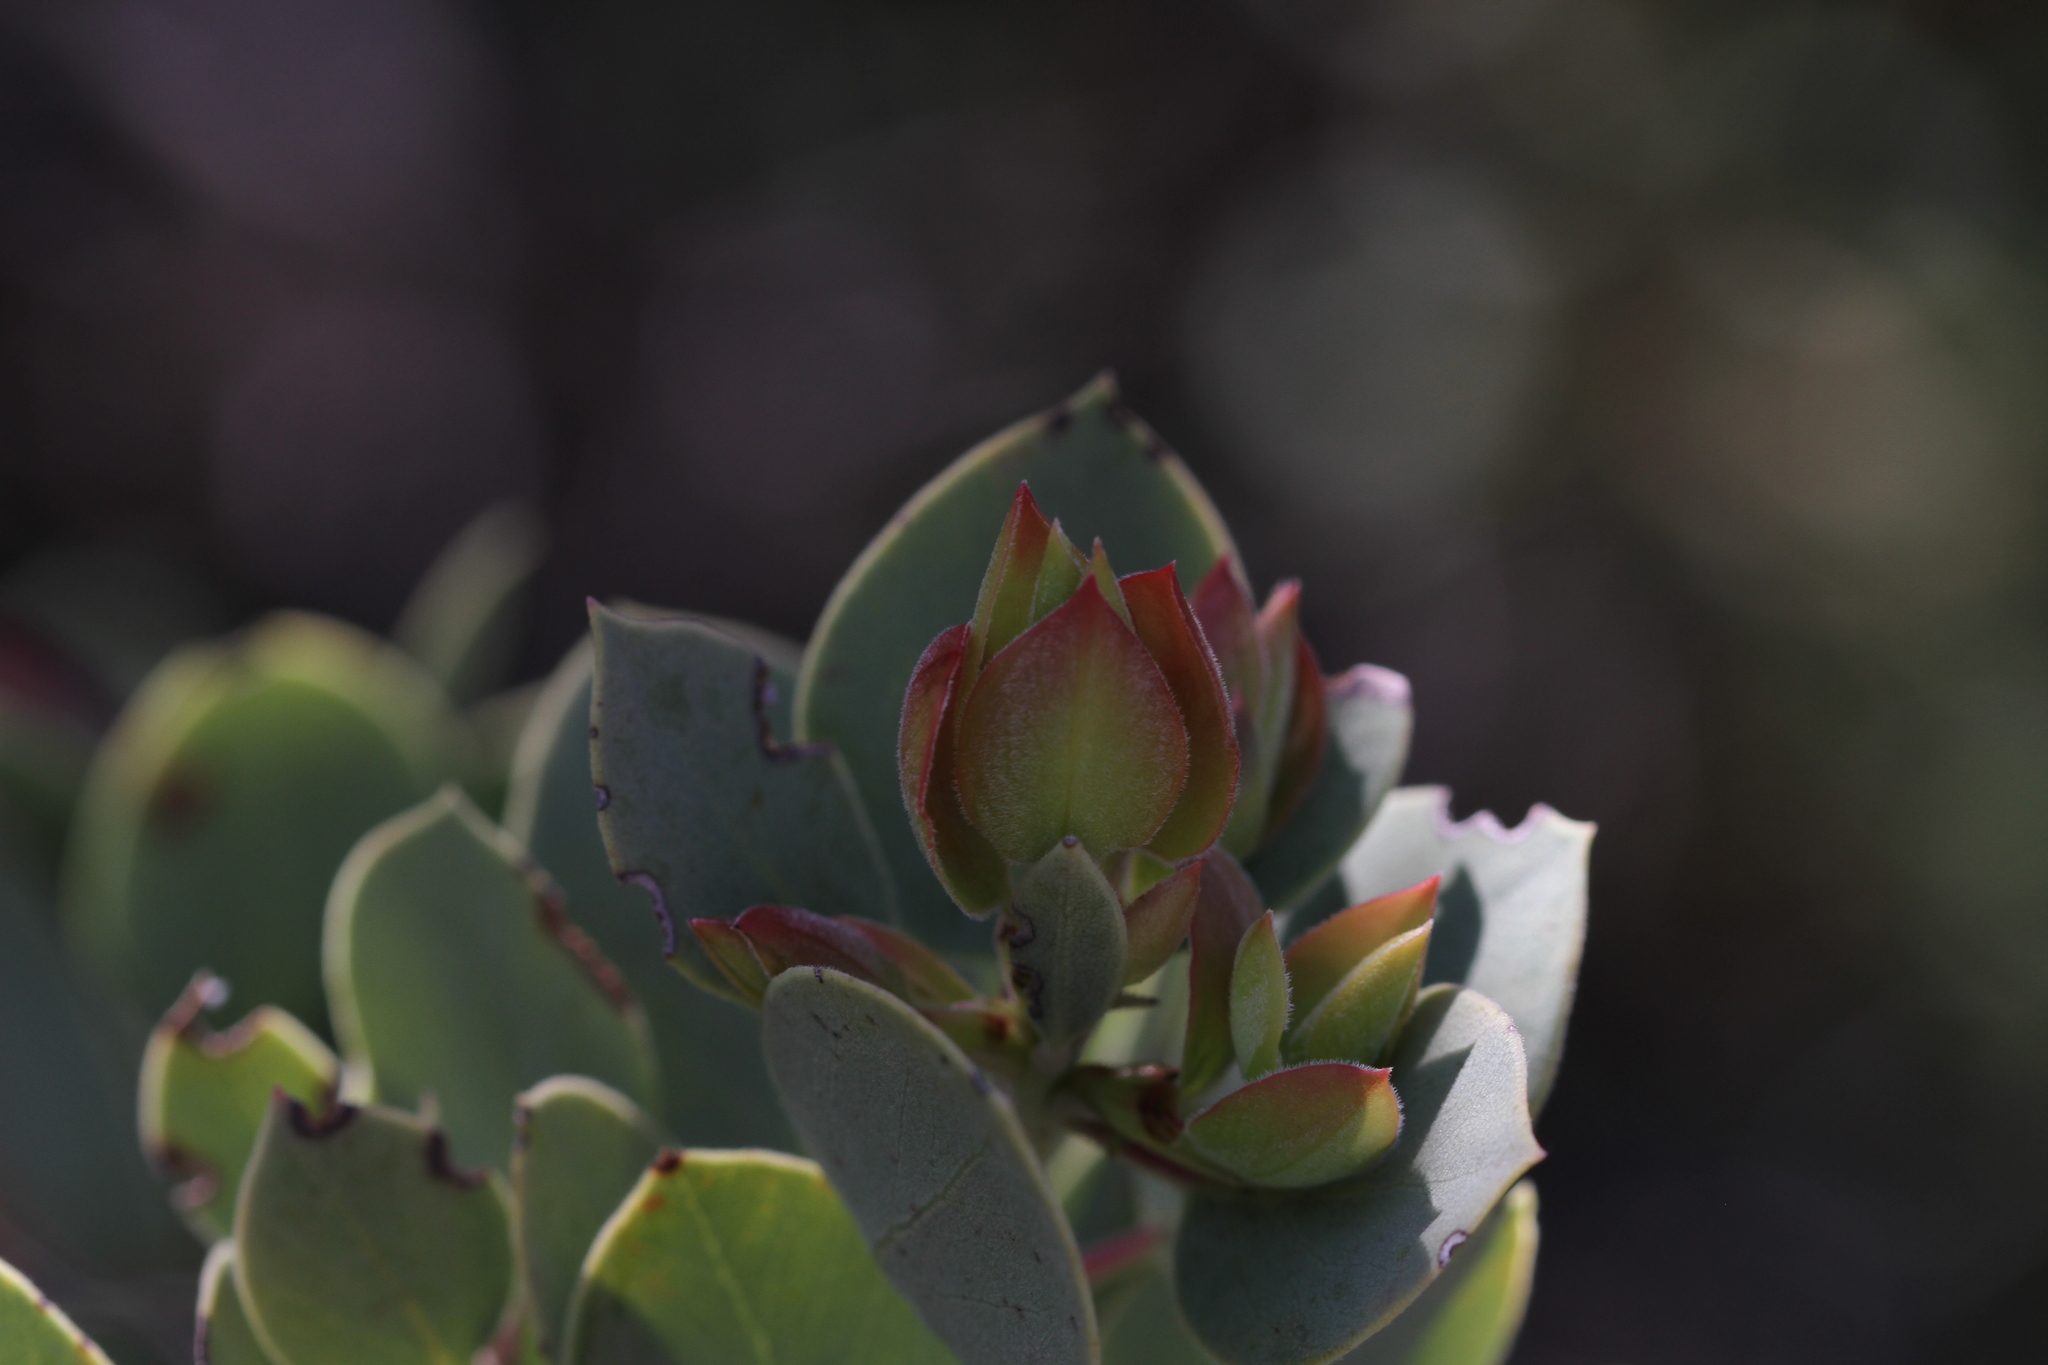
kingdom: Plantae
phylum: Tracheophyta
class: Magnoliopsida
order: Ericales
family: Ericaceae
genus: Arctostaphylos
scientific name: Arctostaphylos viscida
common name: White-leaf manzanita
